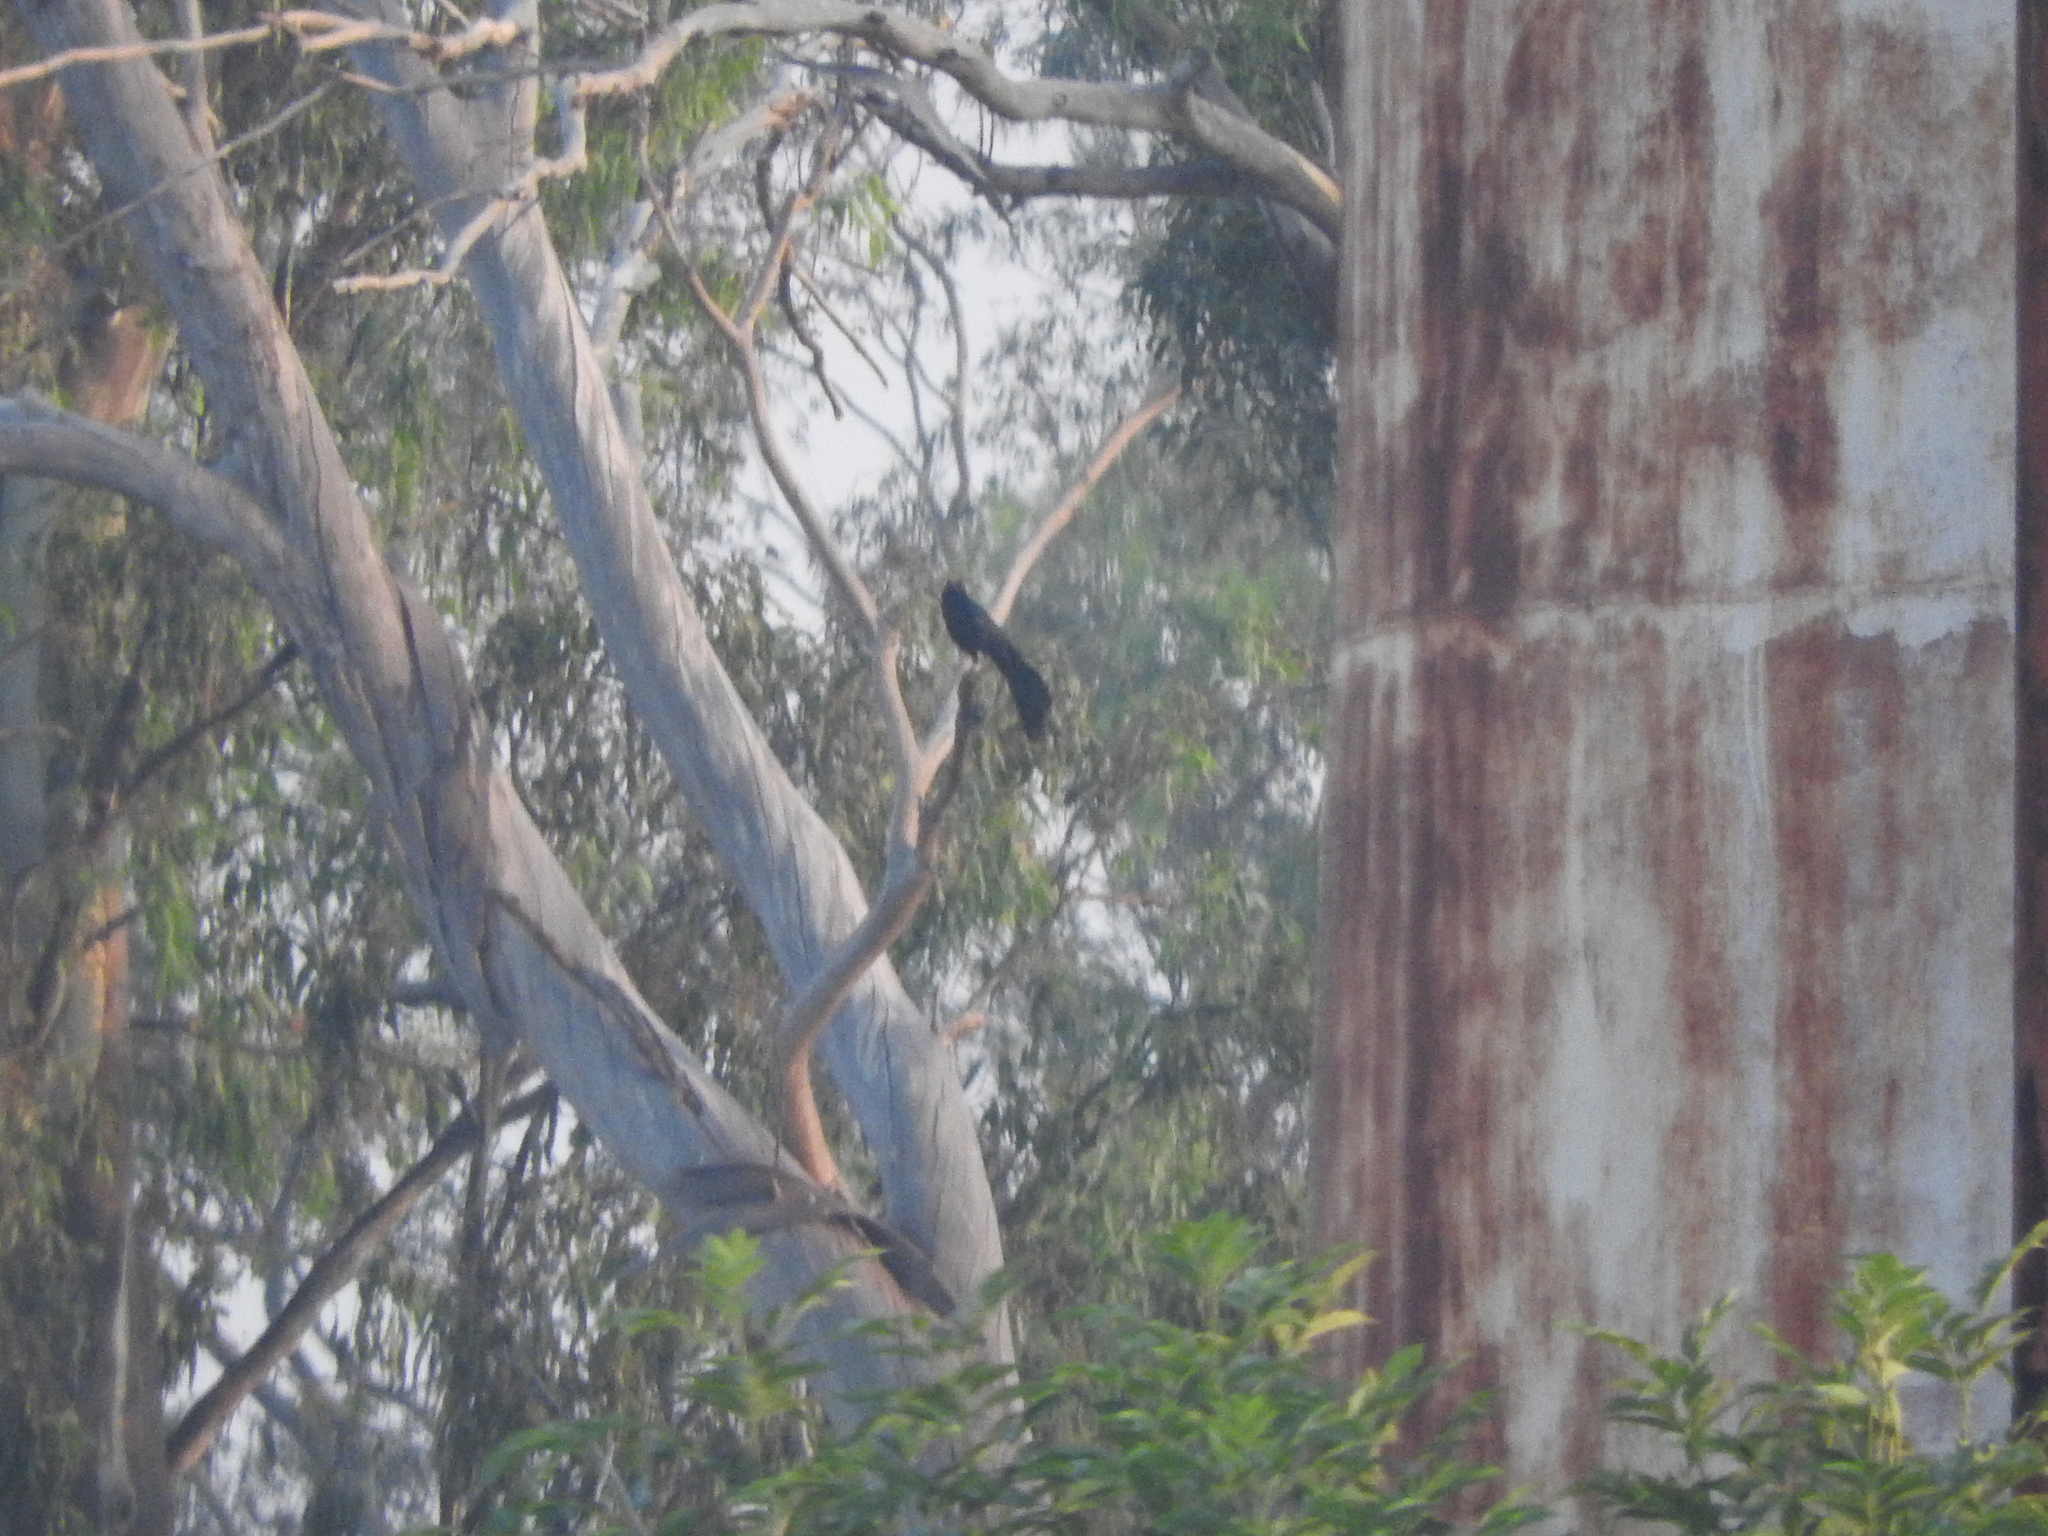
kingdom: Animalia
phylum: Chordata
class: Aves
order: Passeriformes
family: Icteridae
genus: Quiscalus
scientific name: Quiscalus mexicanus
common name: Great-tailed grackle
